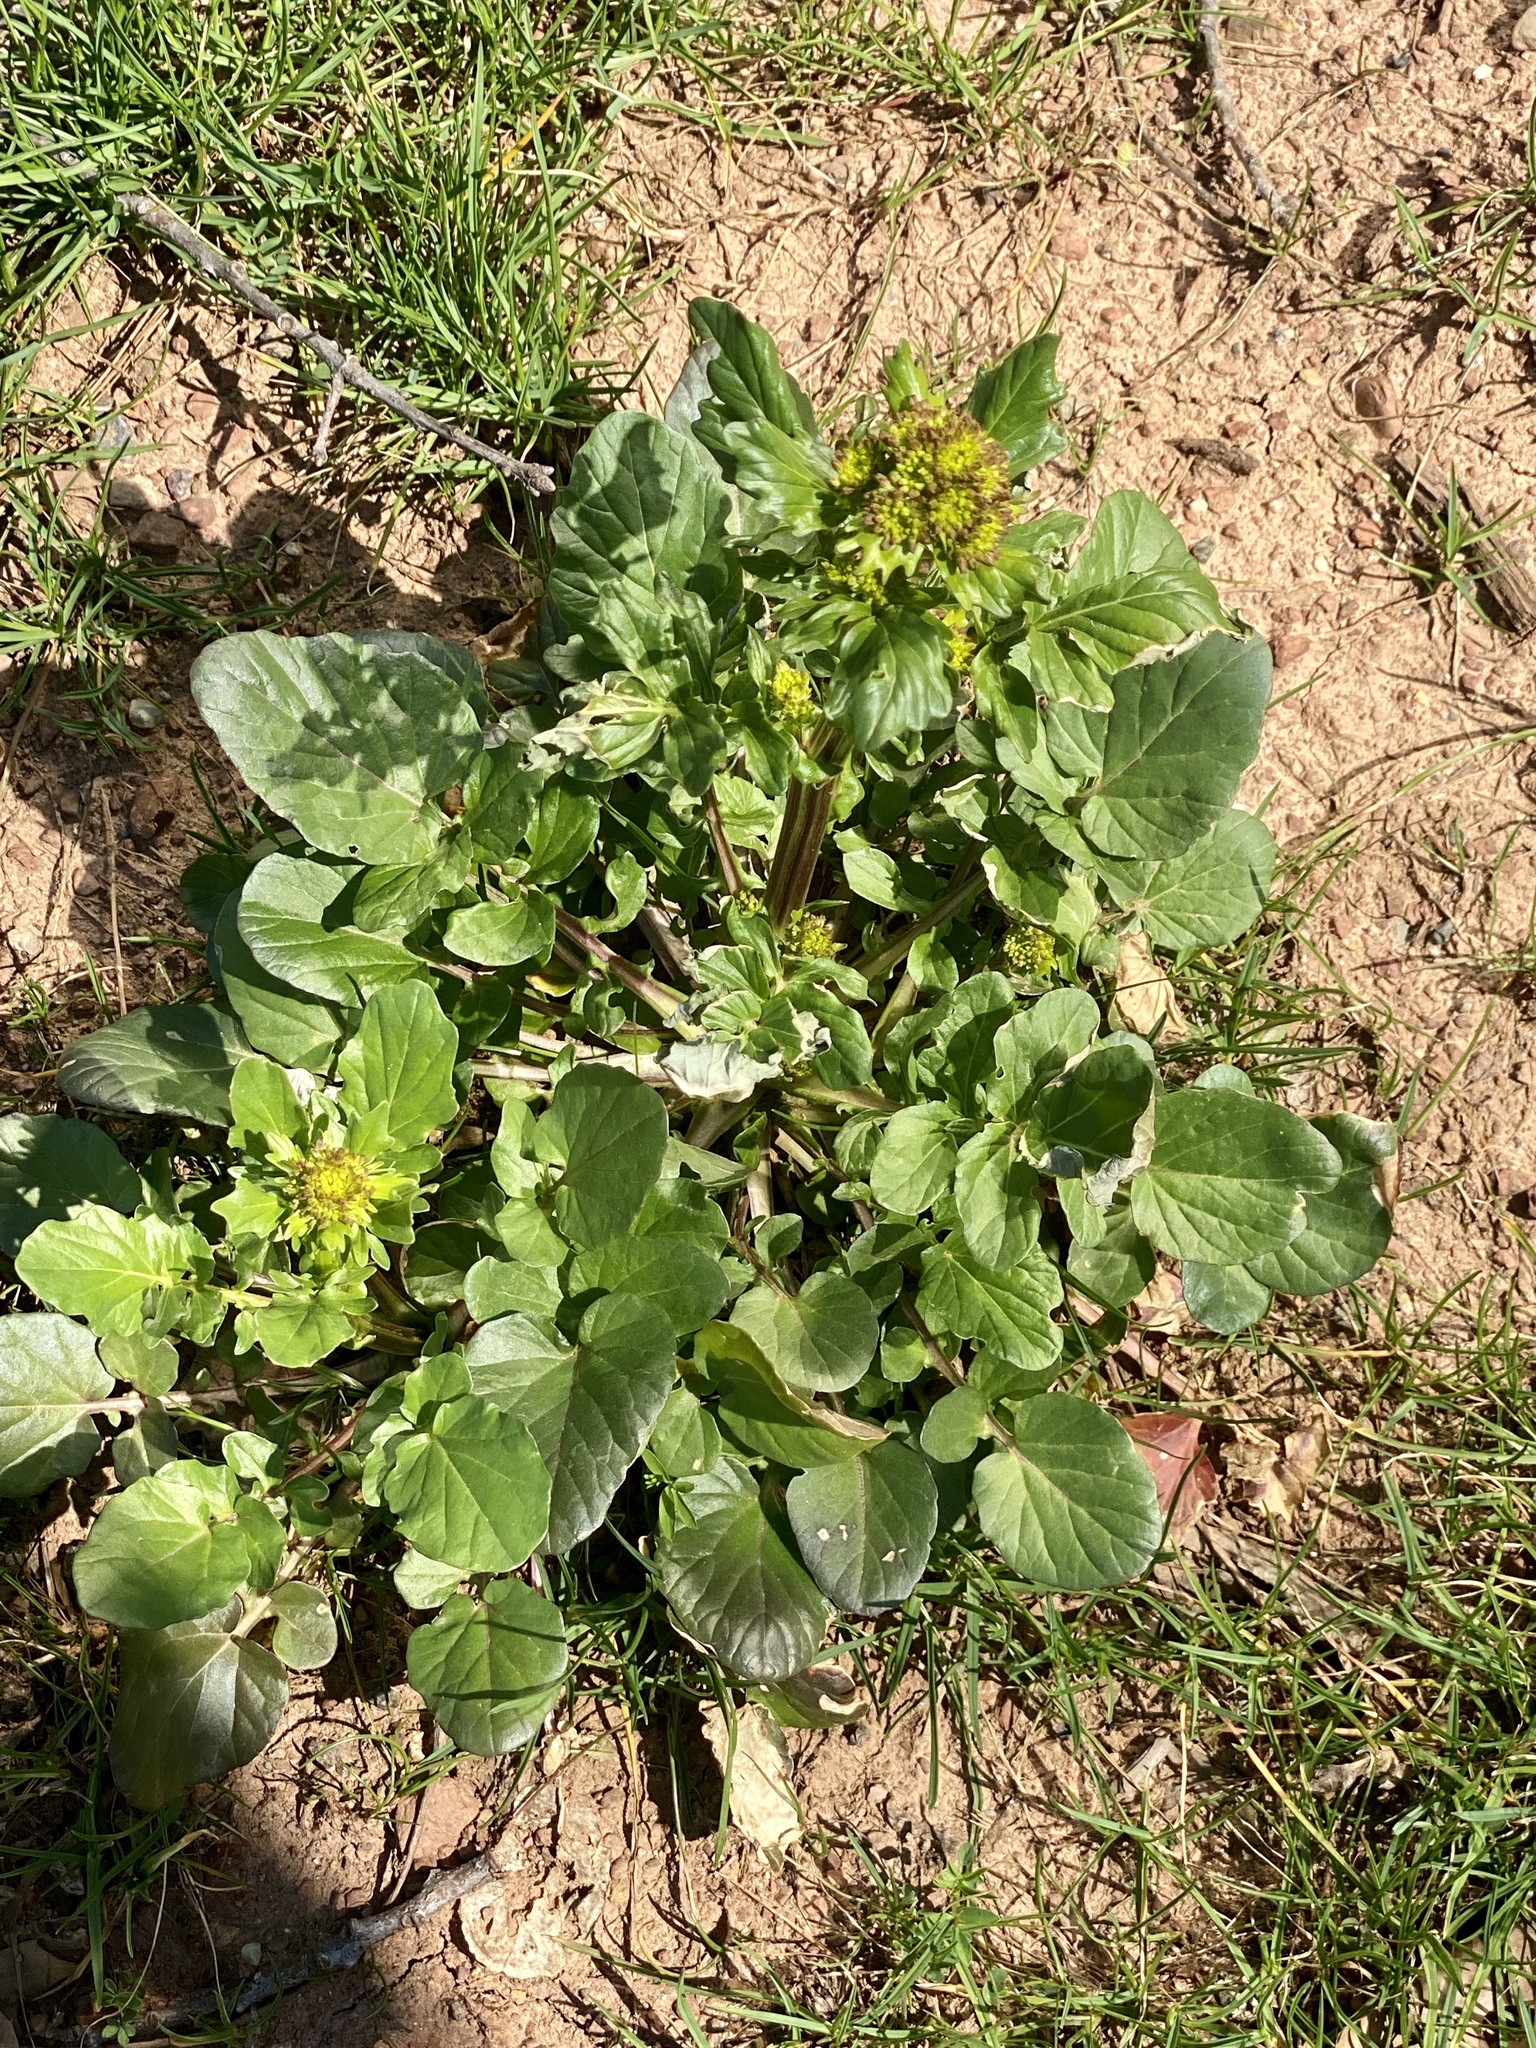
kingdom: Plantae
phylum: Tracheophyta
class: Magnoliopsida
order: Brassicales
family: Brassicaceae
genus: Barbarea
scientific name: Barbarea vulgaris
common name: Cressy-greens
